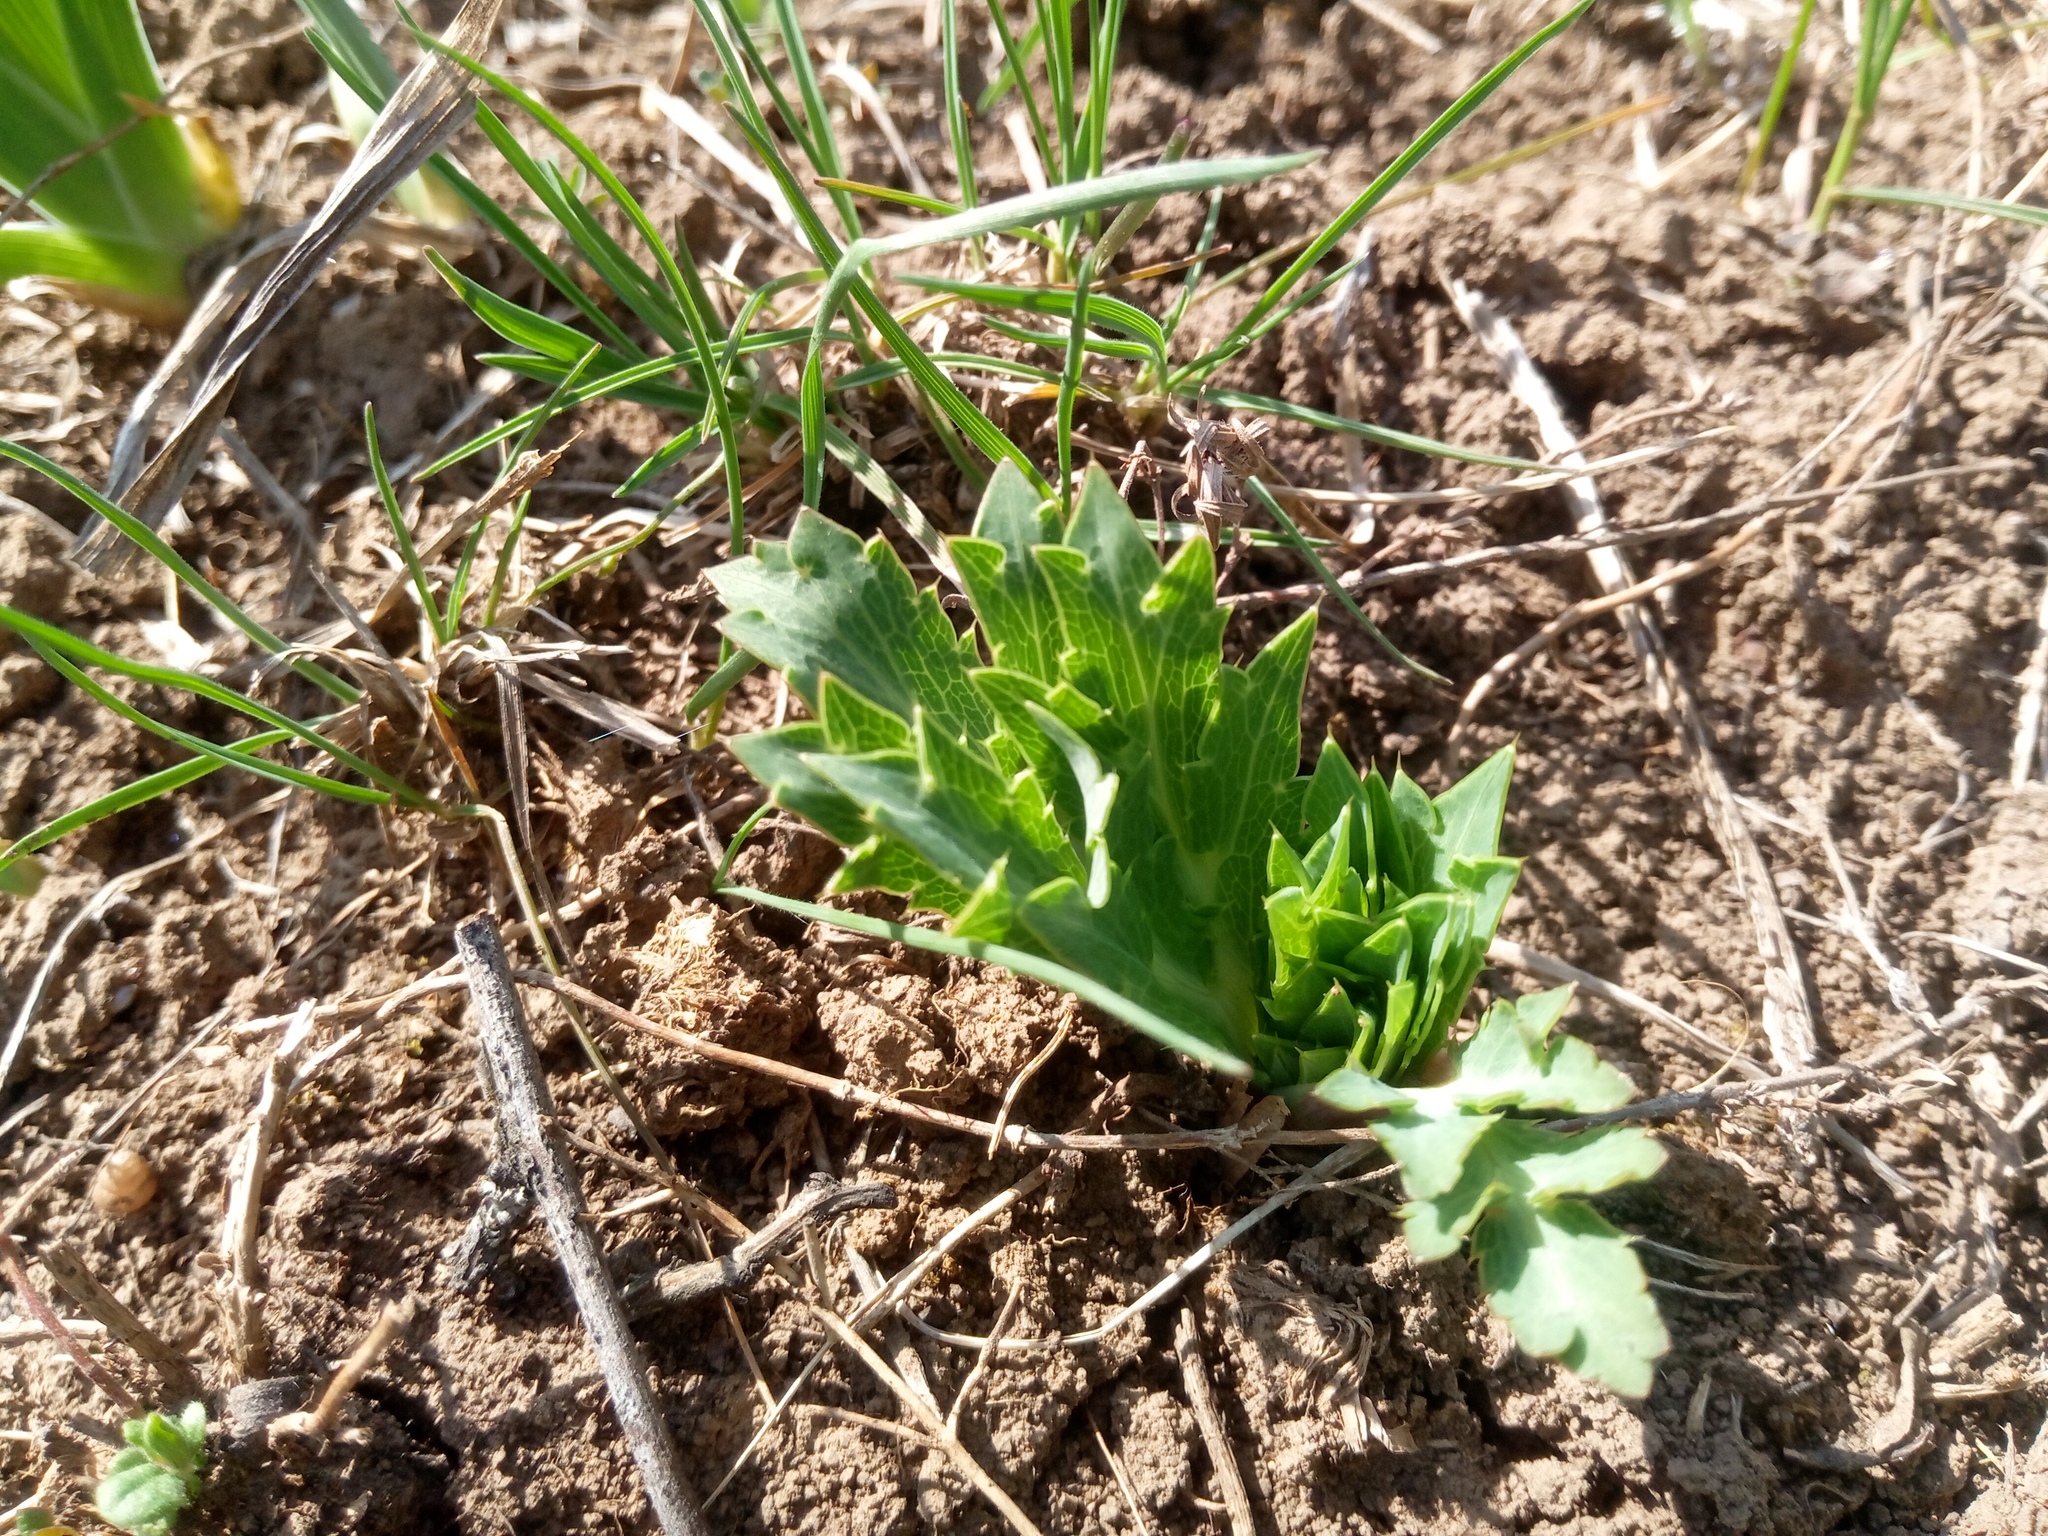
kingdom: Plantae
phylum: Tracheophyta
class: Magnoliopsida
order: Apiales
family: Apiaceae
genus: Eryngium
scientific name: Eryngium campestre
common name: Field eryngo
